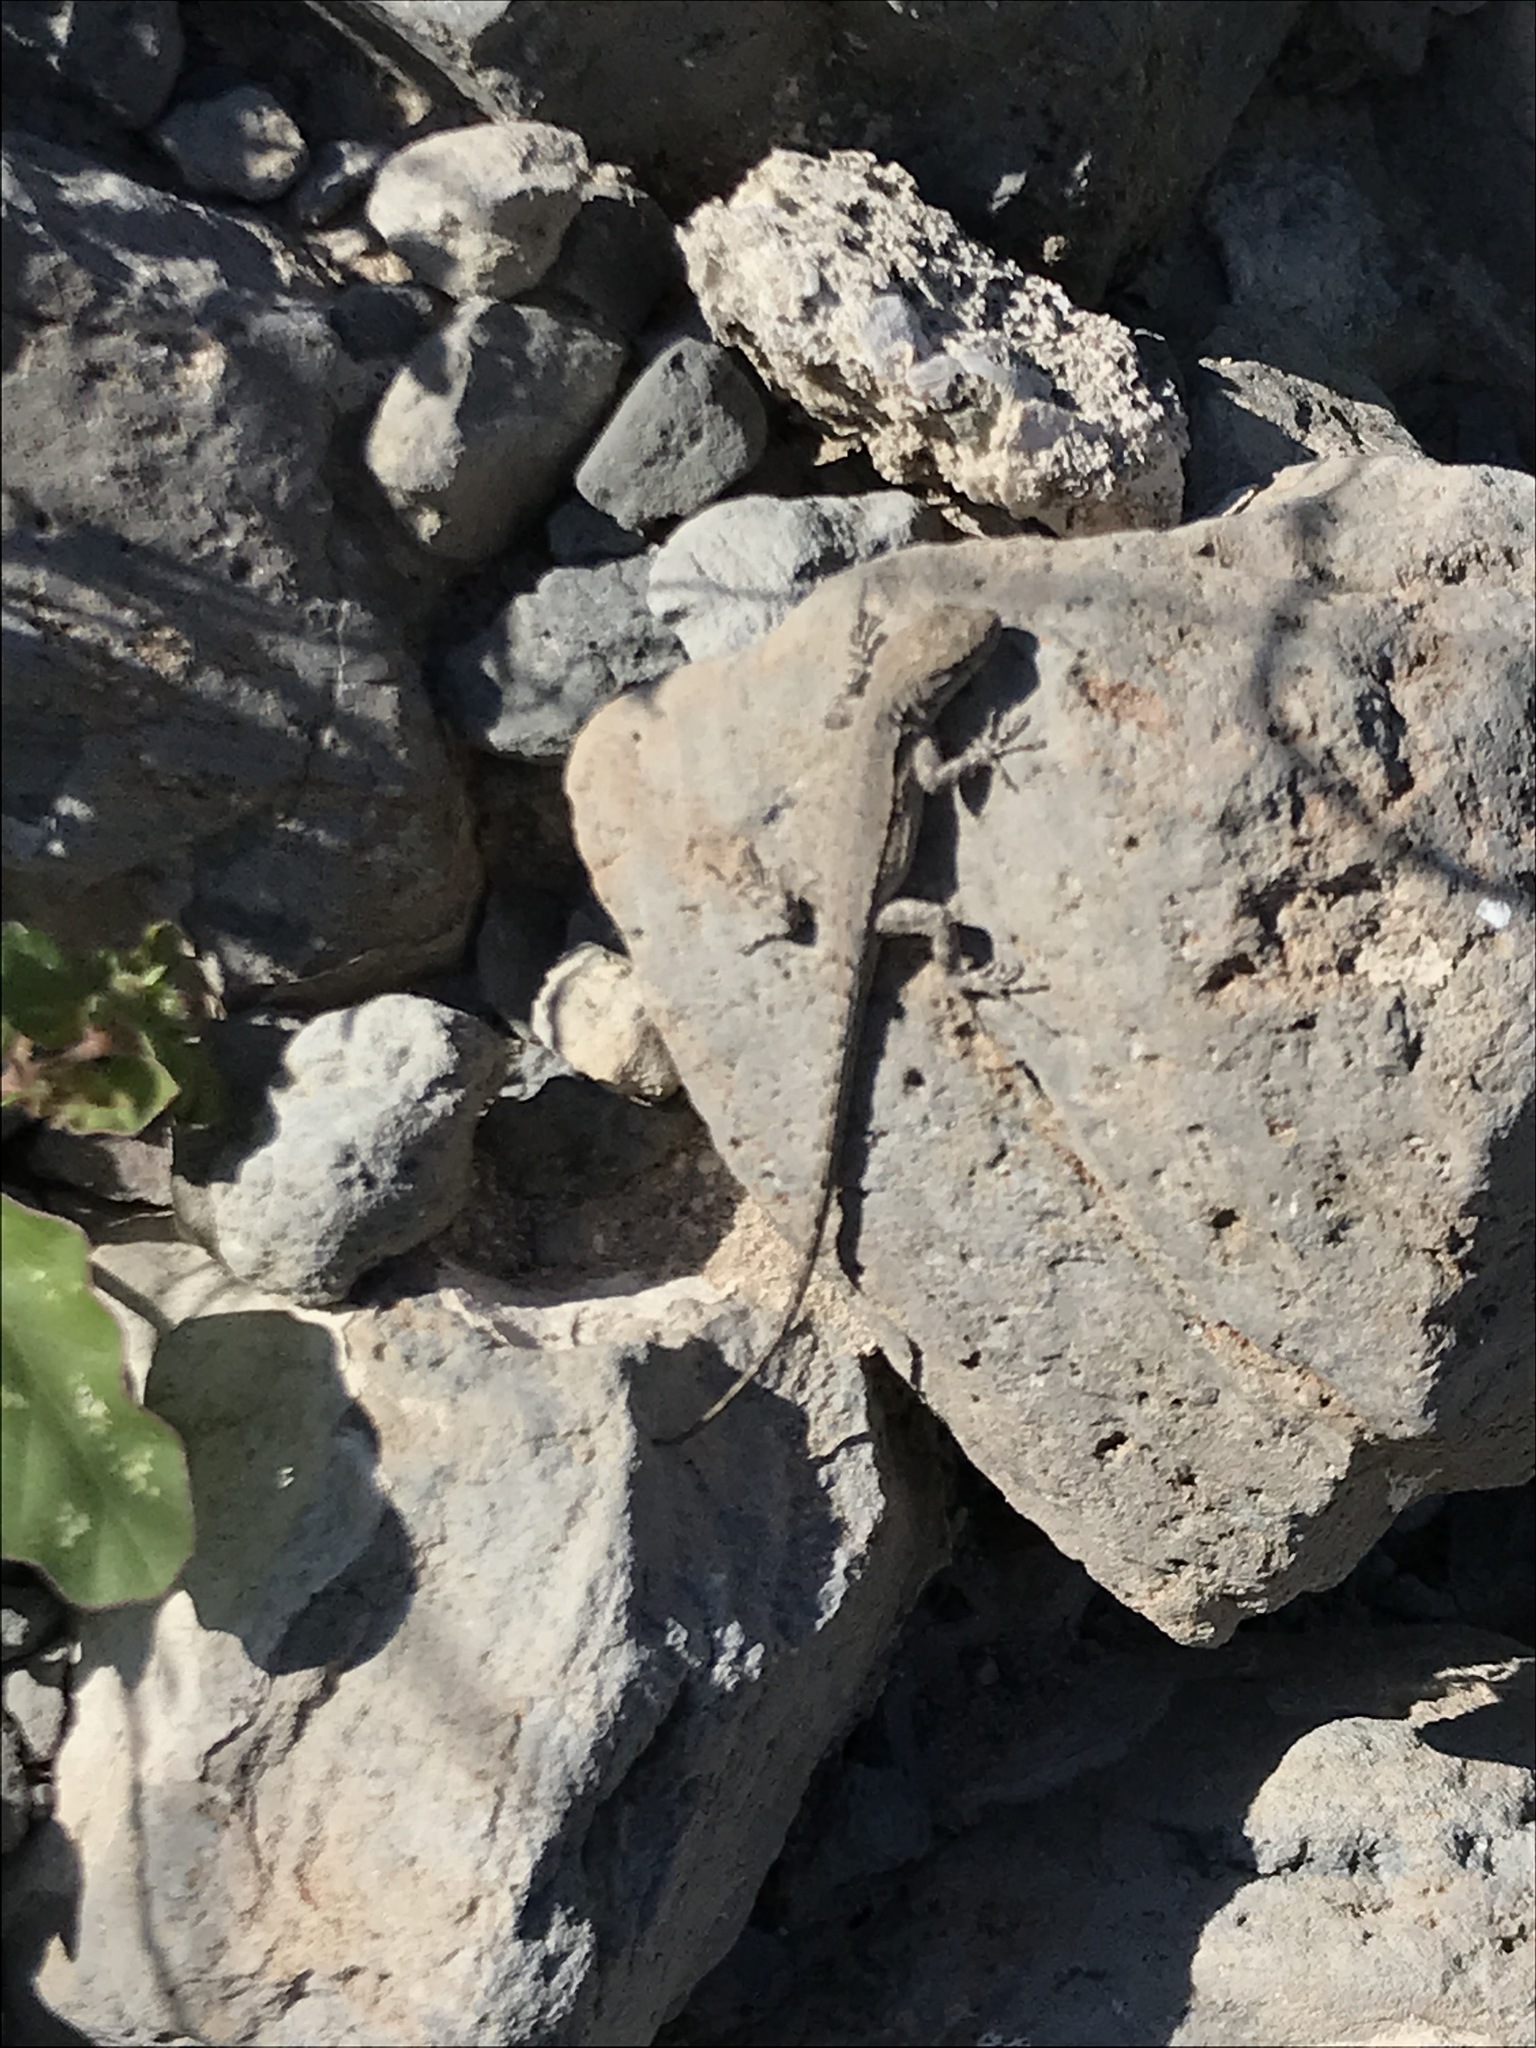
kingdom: Animalia
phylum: Chordata
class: Squamata
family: Phrynosomatidae
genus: Urosaurus
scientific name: Urosaurus nigricauda
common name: Baja california brush lizard
